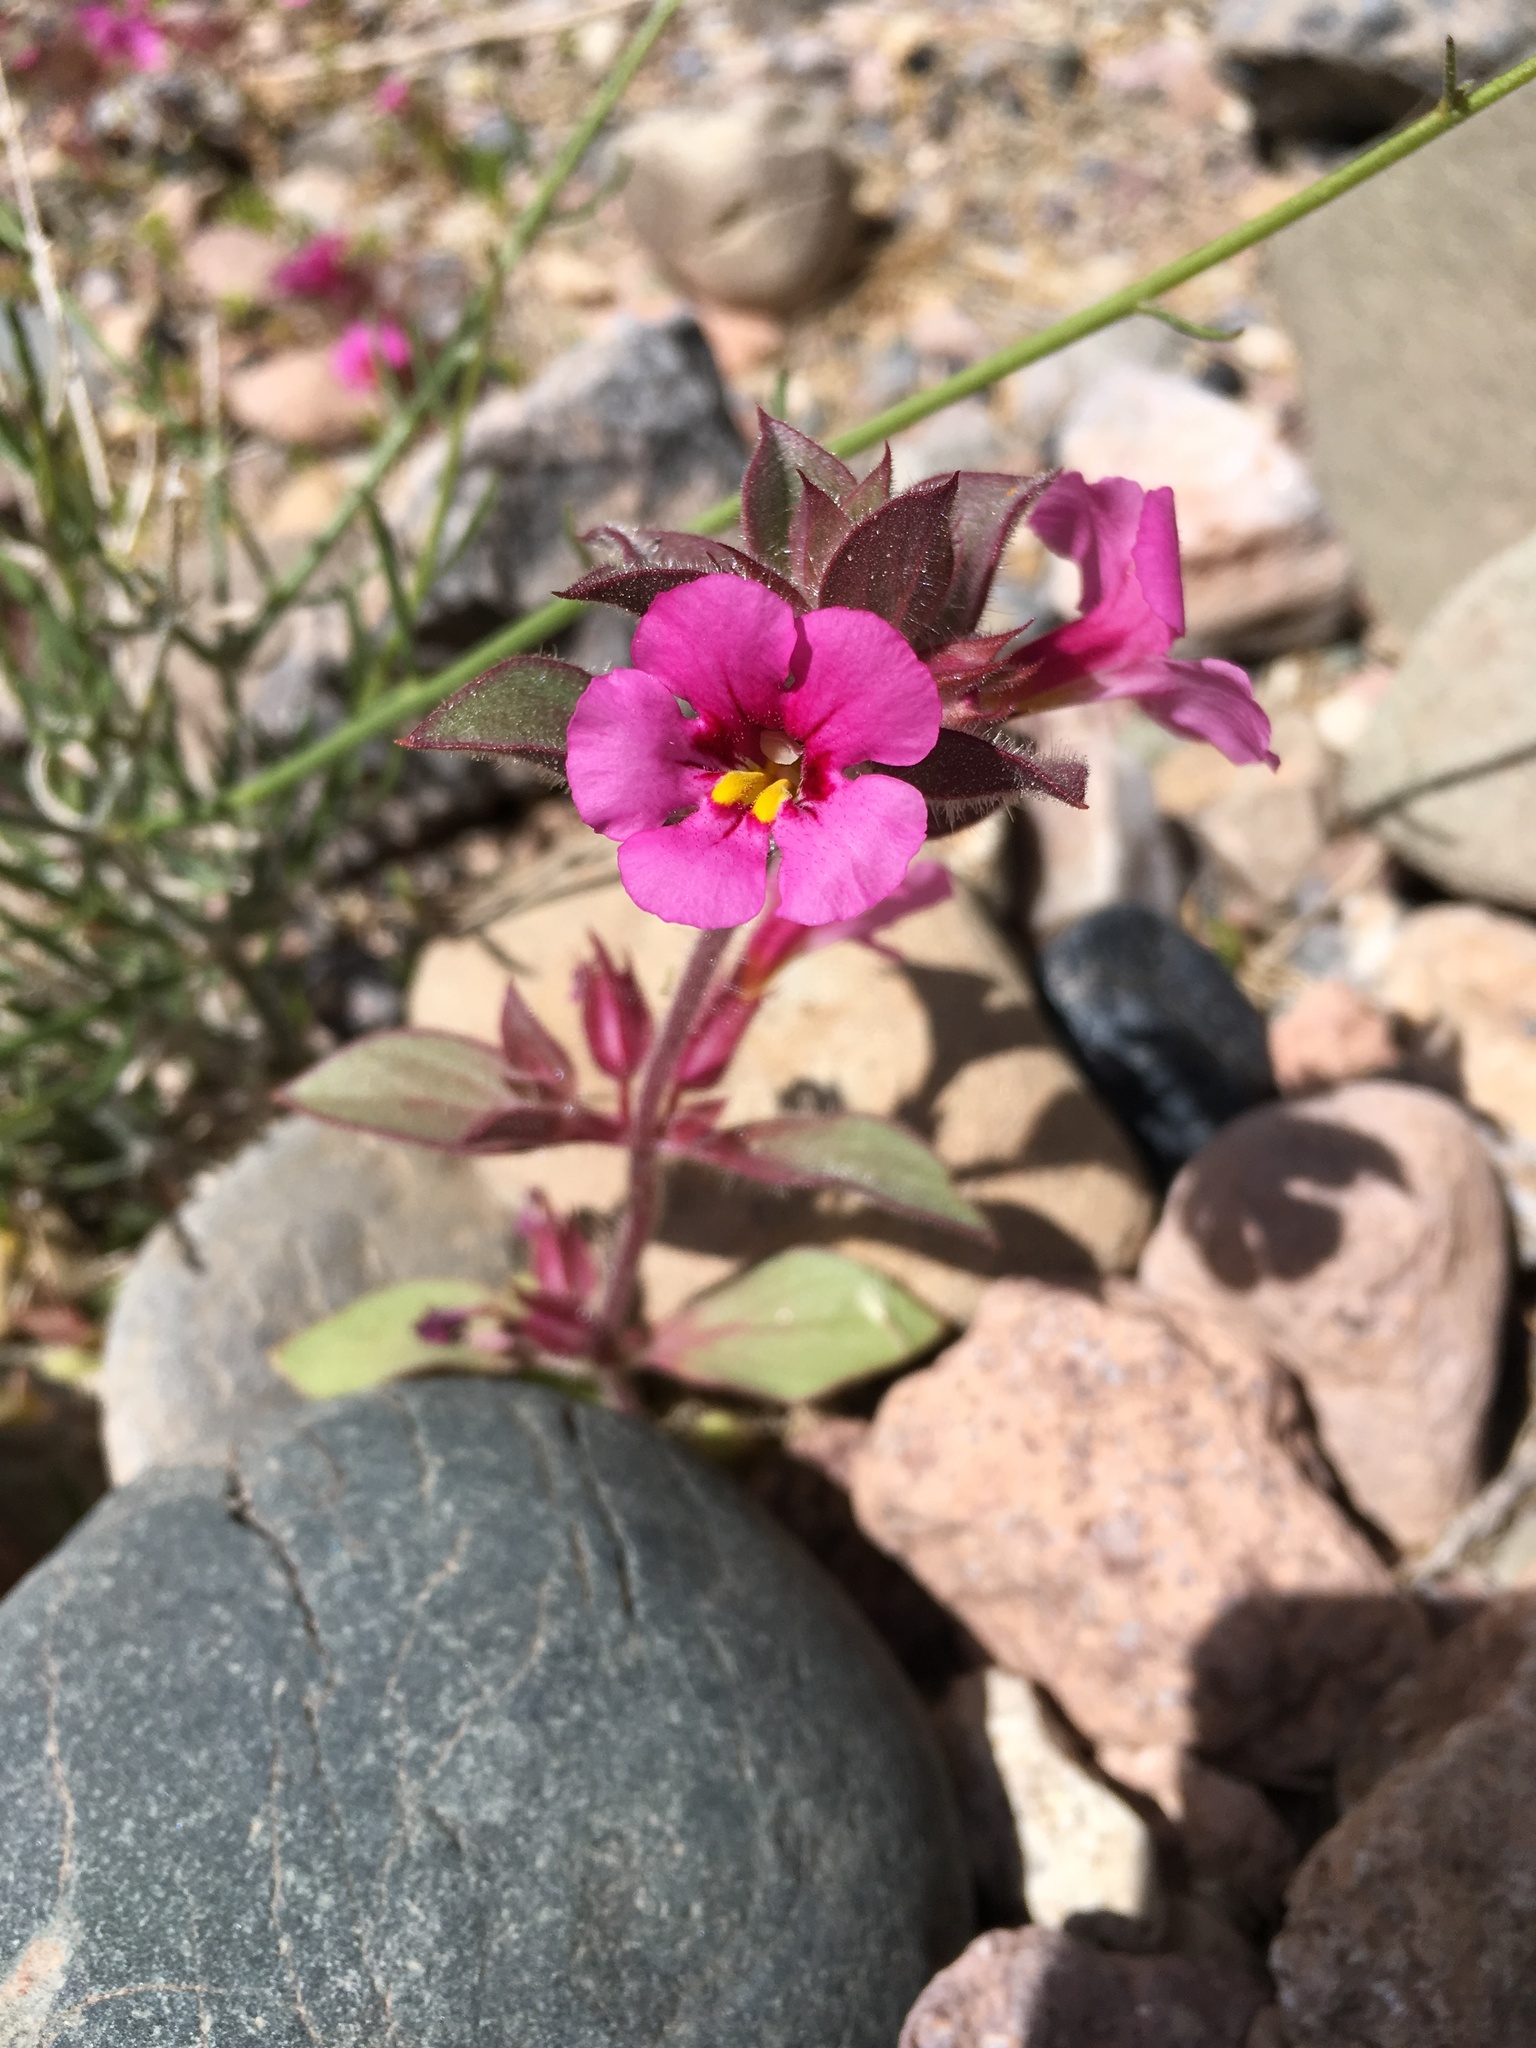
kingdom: Plantae
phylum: Tracheophyta
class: Magnoliopsida
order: Lamiales
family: Phrymaceae
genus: Diplacus
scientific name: Diplacus bigelovii
